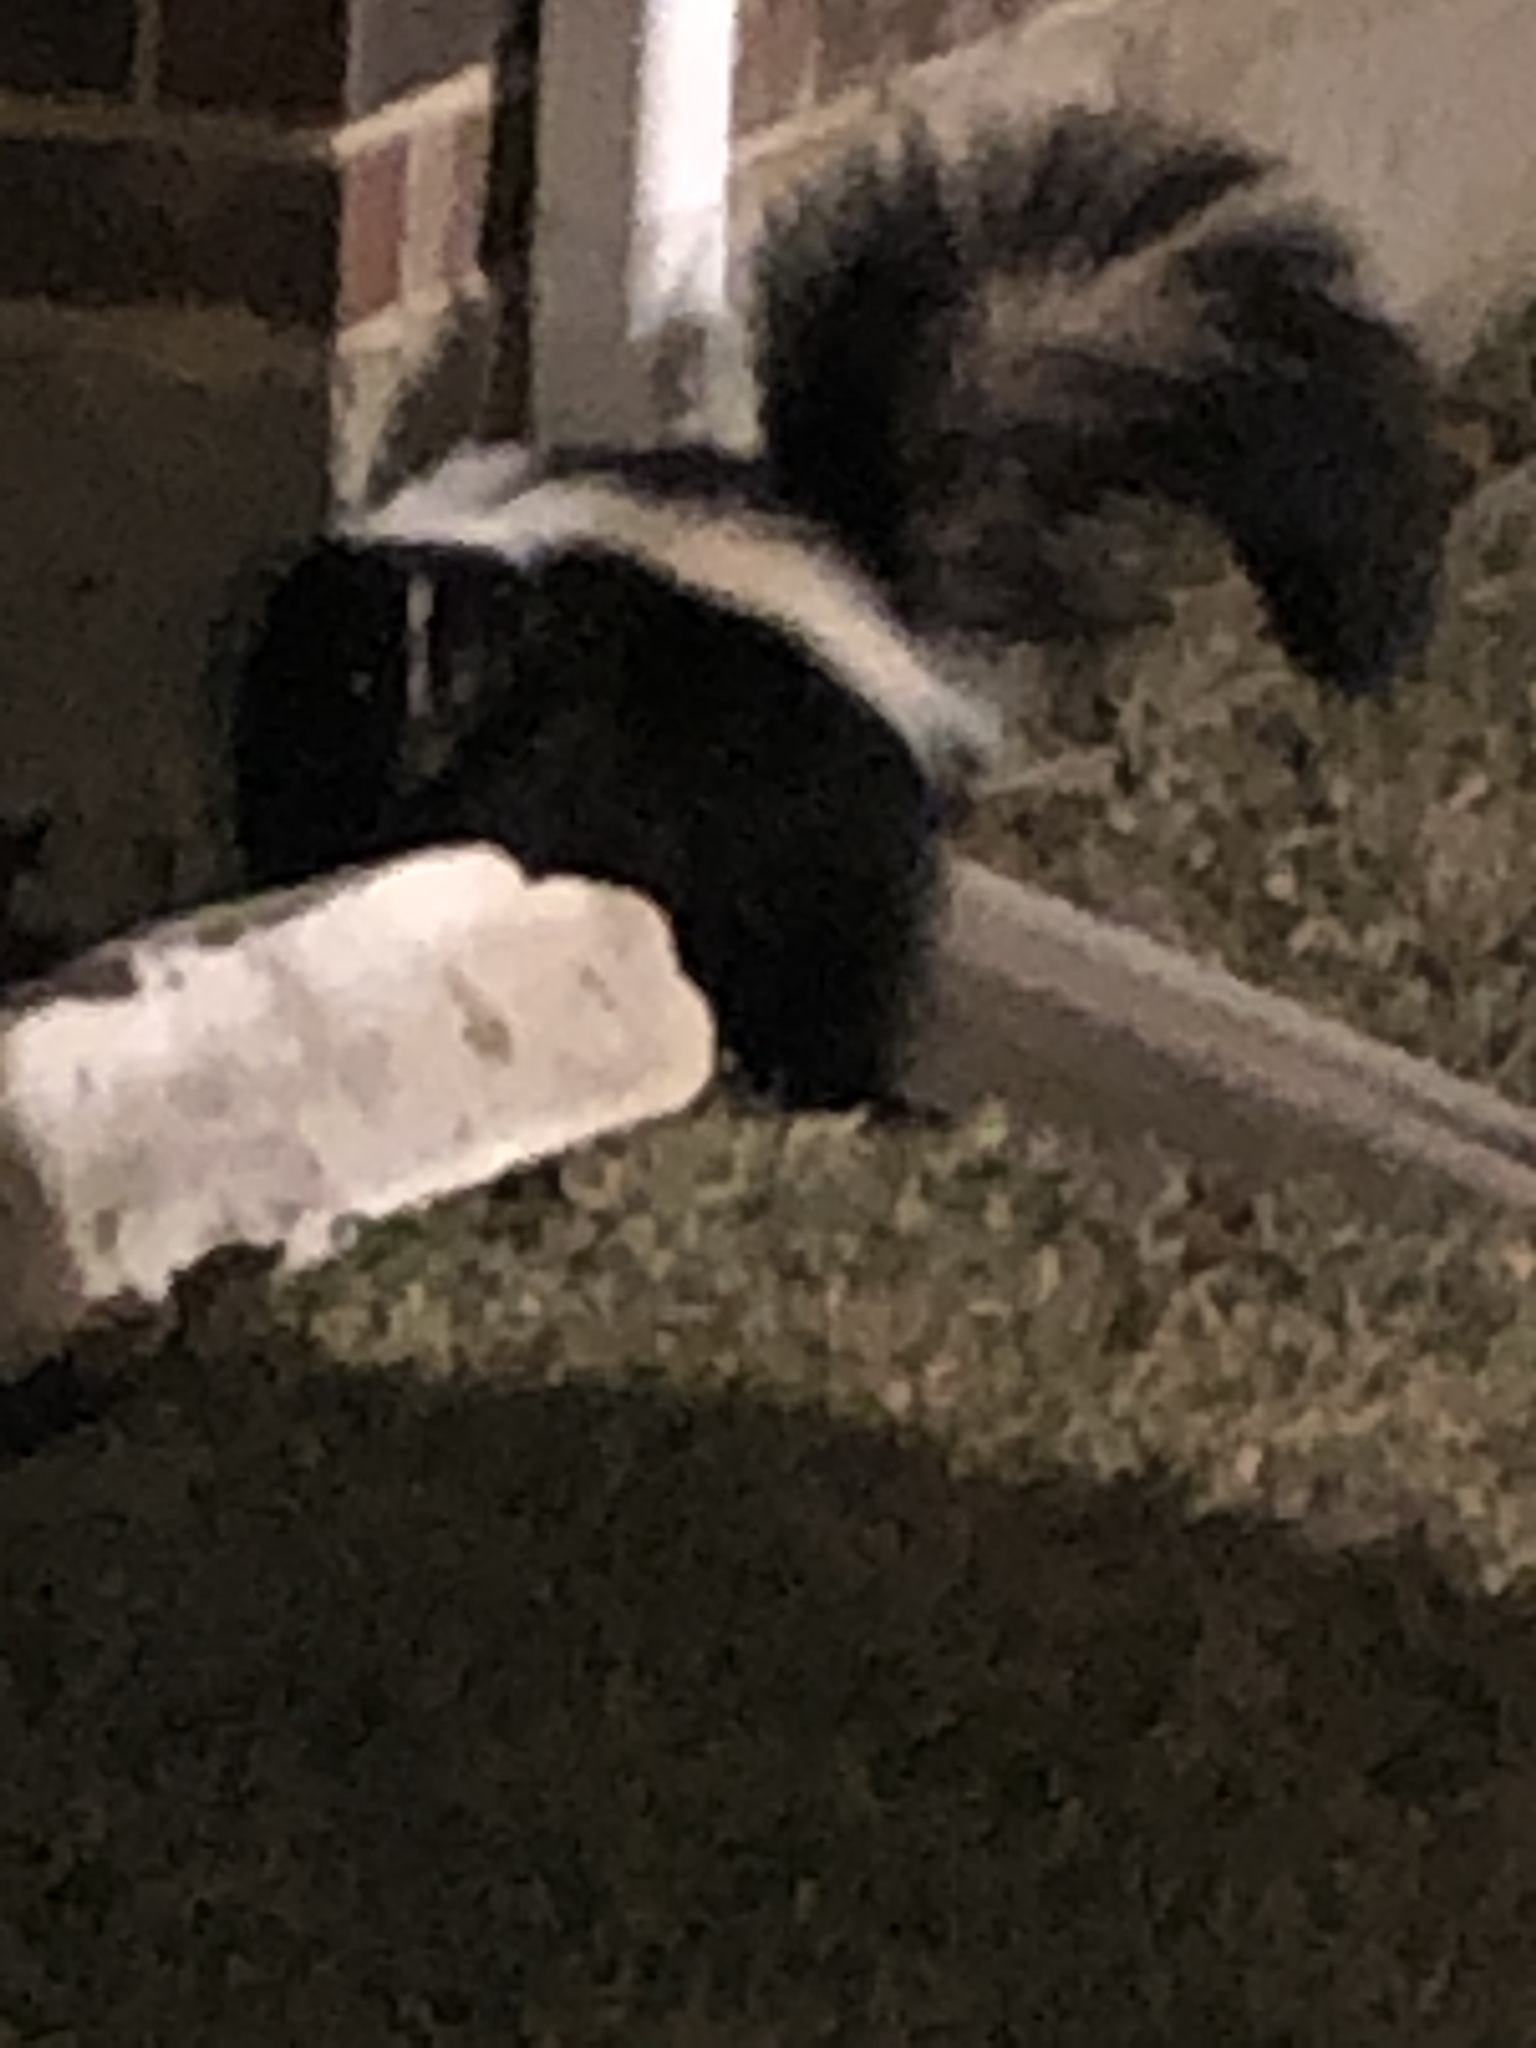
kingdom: Animalia
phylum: Chordata
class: Mammalia
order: Carnivora
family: Mephitidae
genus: Mephitis
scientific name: Mephitis mephitis
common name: Striped skunk
